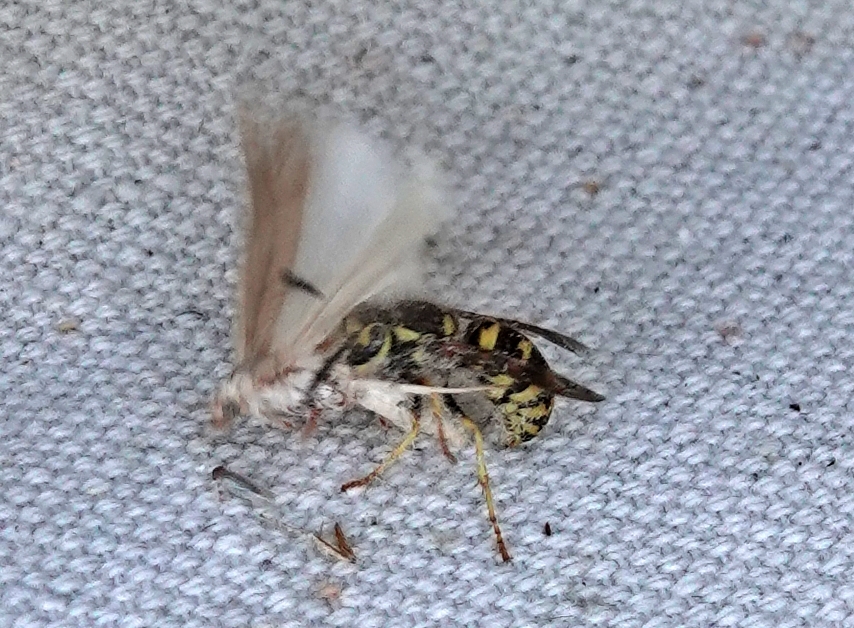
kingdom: Animalia
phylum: Arthropoda
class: Insecta
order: Hymenoptera
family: Vespidae
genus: Vespula
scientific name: Vespula pensylvanica
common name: Western yellowjacket
